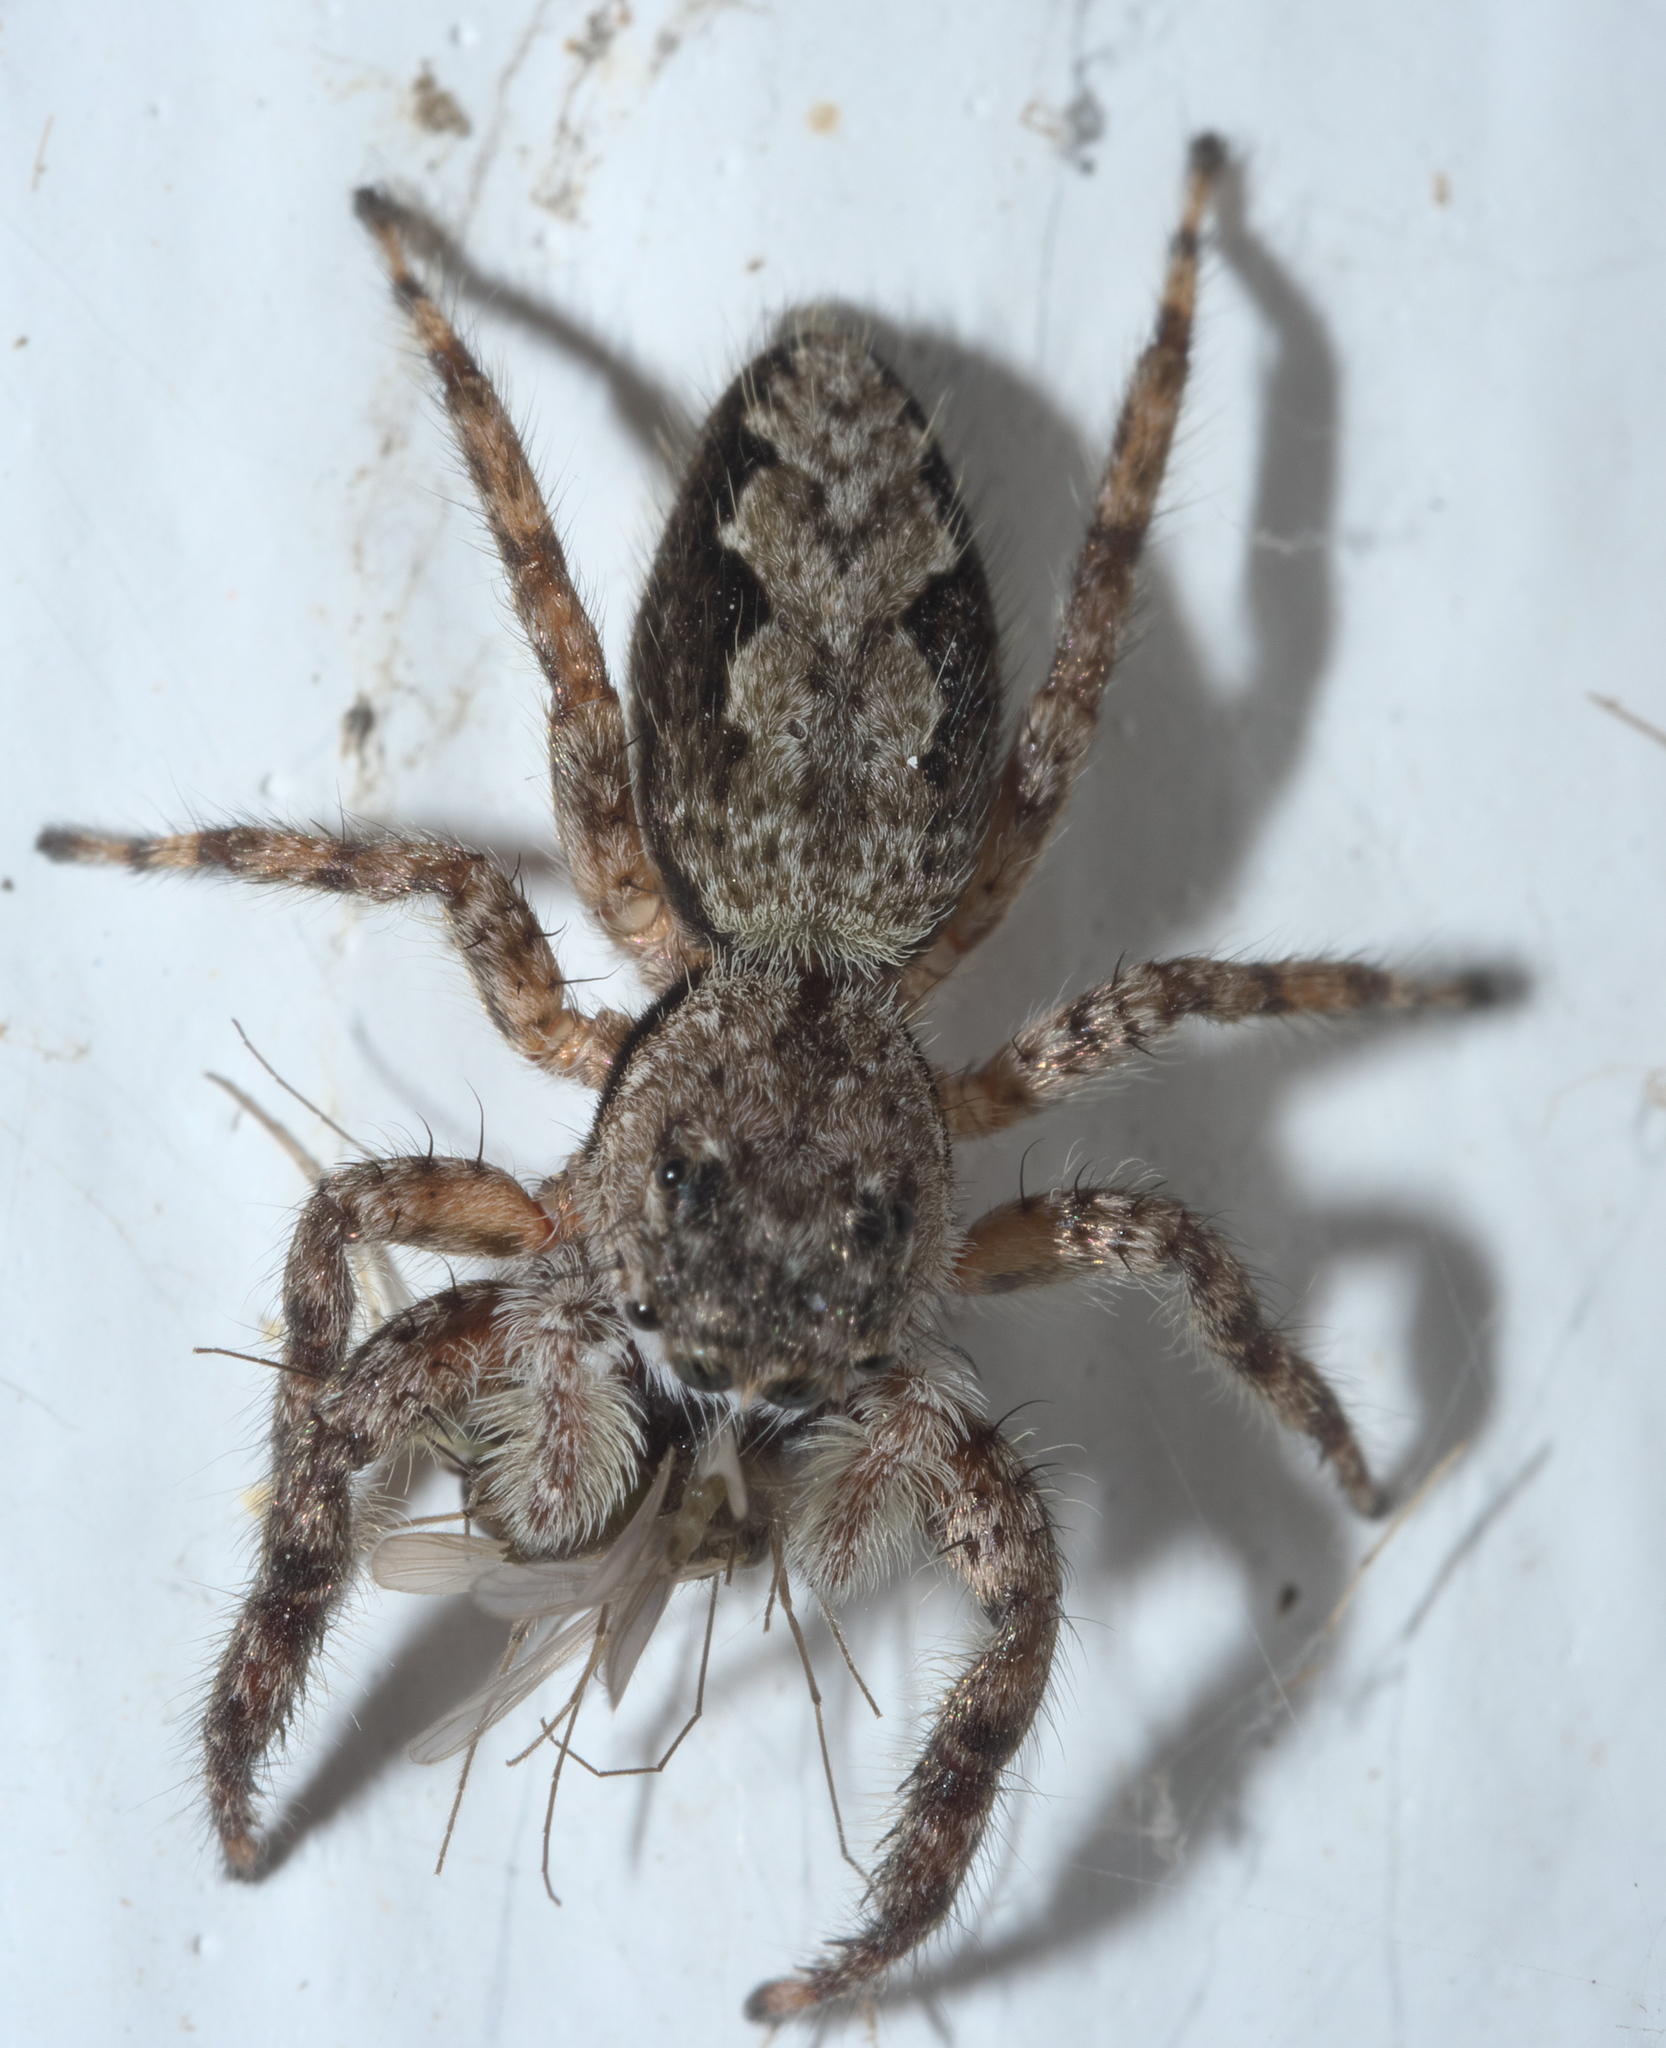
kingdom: Animalia
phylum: Arthropoda
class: Arachnida
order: Araneae
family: Salticidae
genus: Platycryptus
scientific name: Platycryptus undatus
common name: Tan jumping spider
